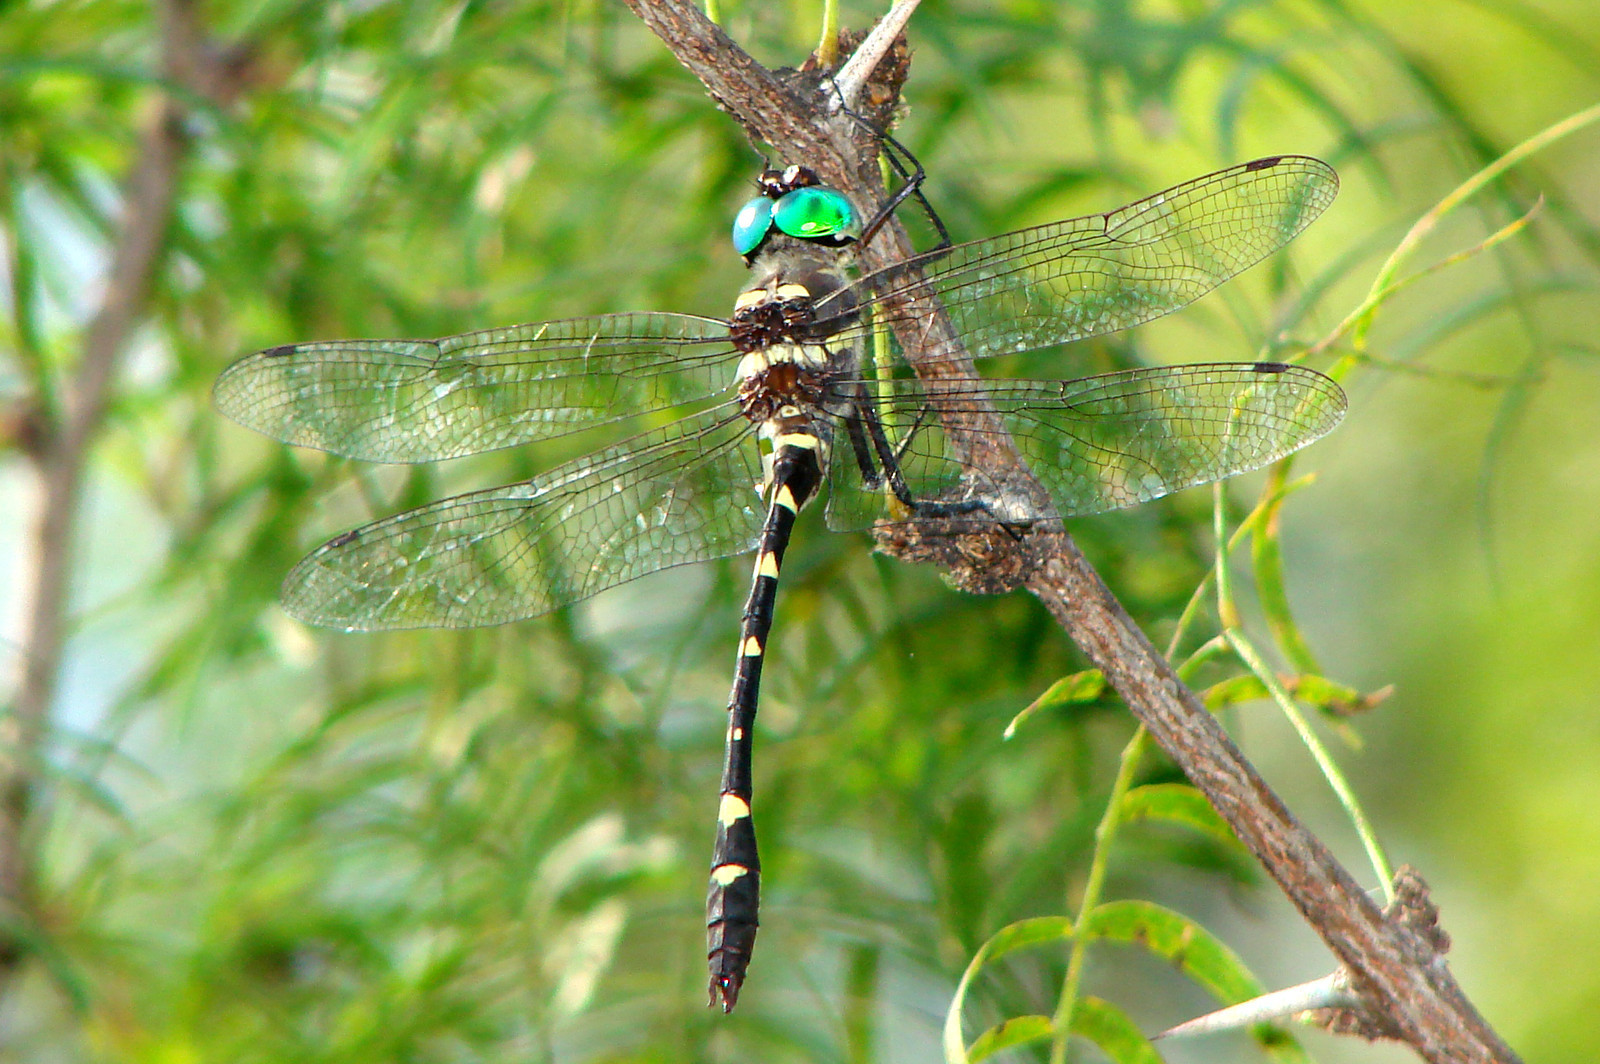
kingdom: Animalia
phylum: Arthropoda
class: Insecta
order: Odonata
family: Macromiidae
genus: Macromia
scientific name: Macromia illinoiensis
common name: Swift river cruiser
